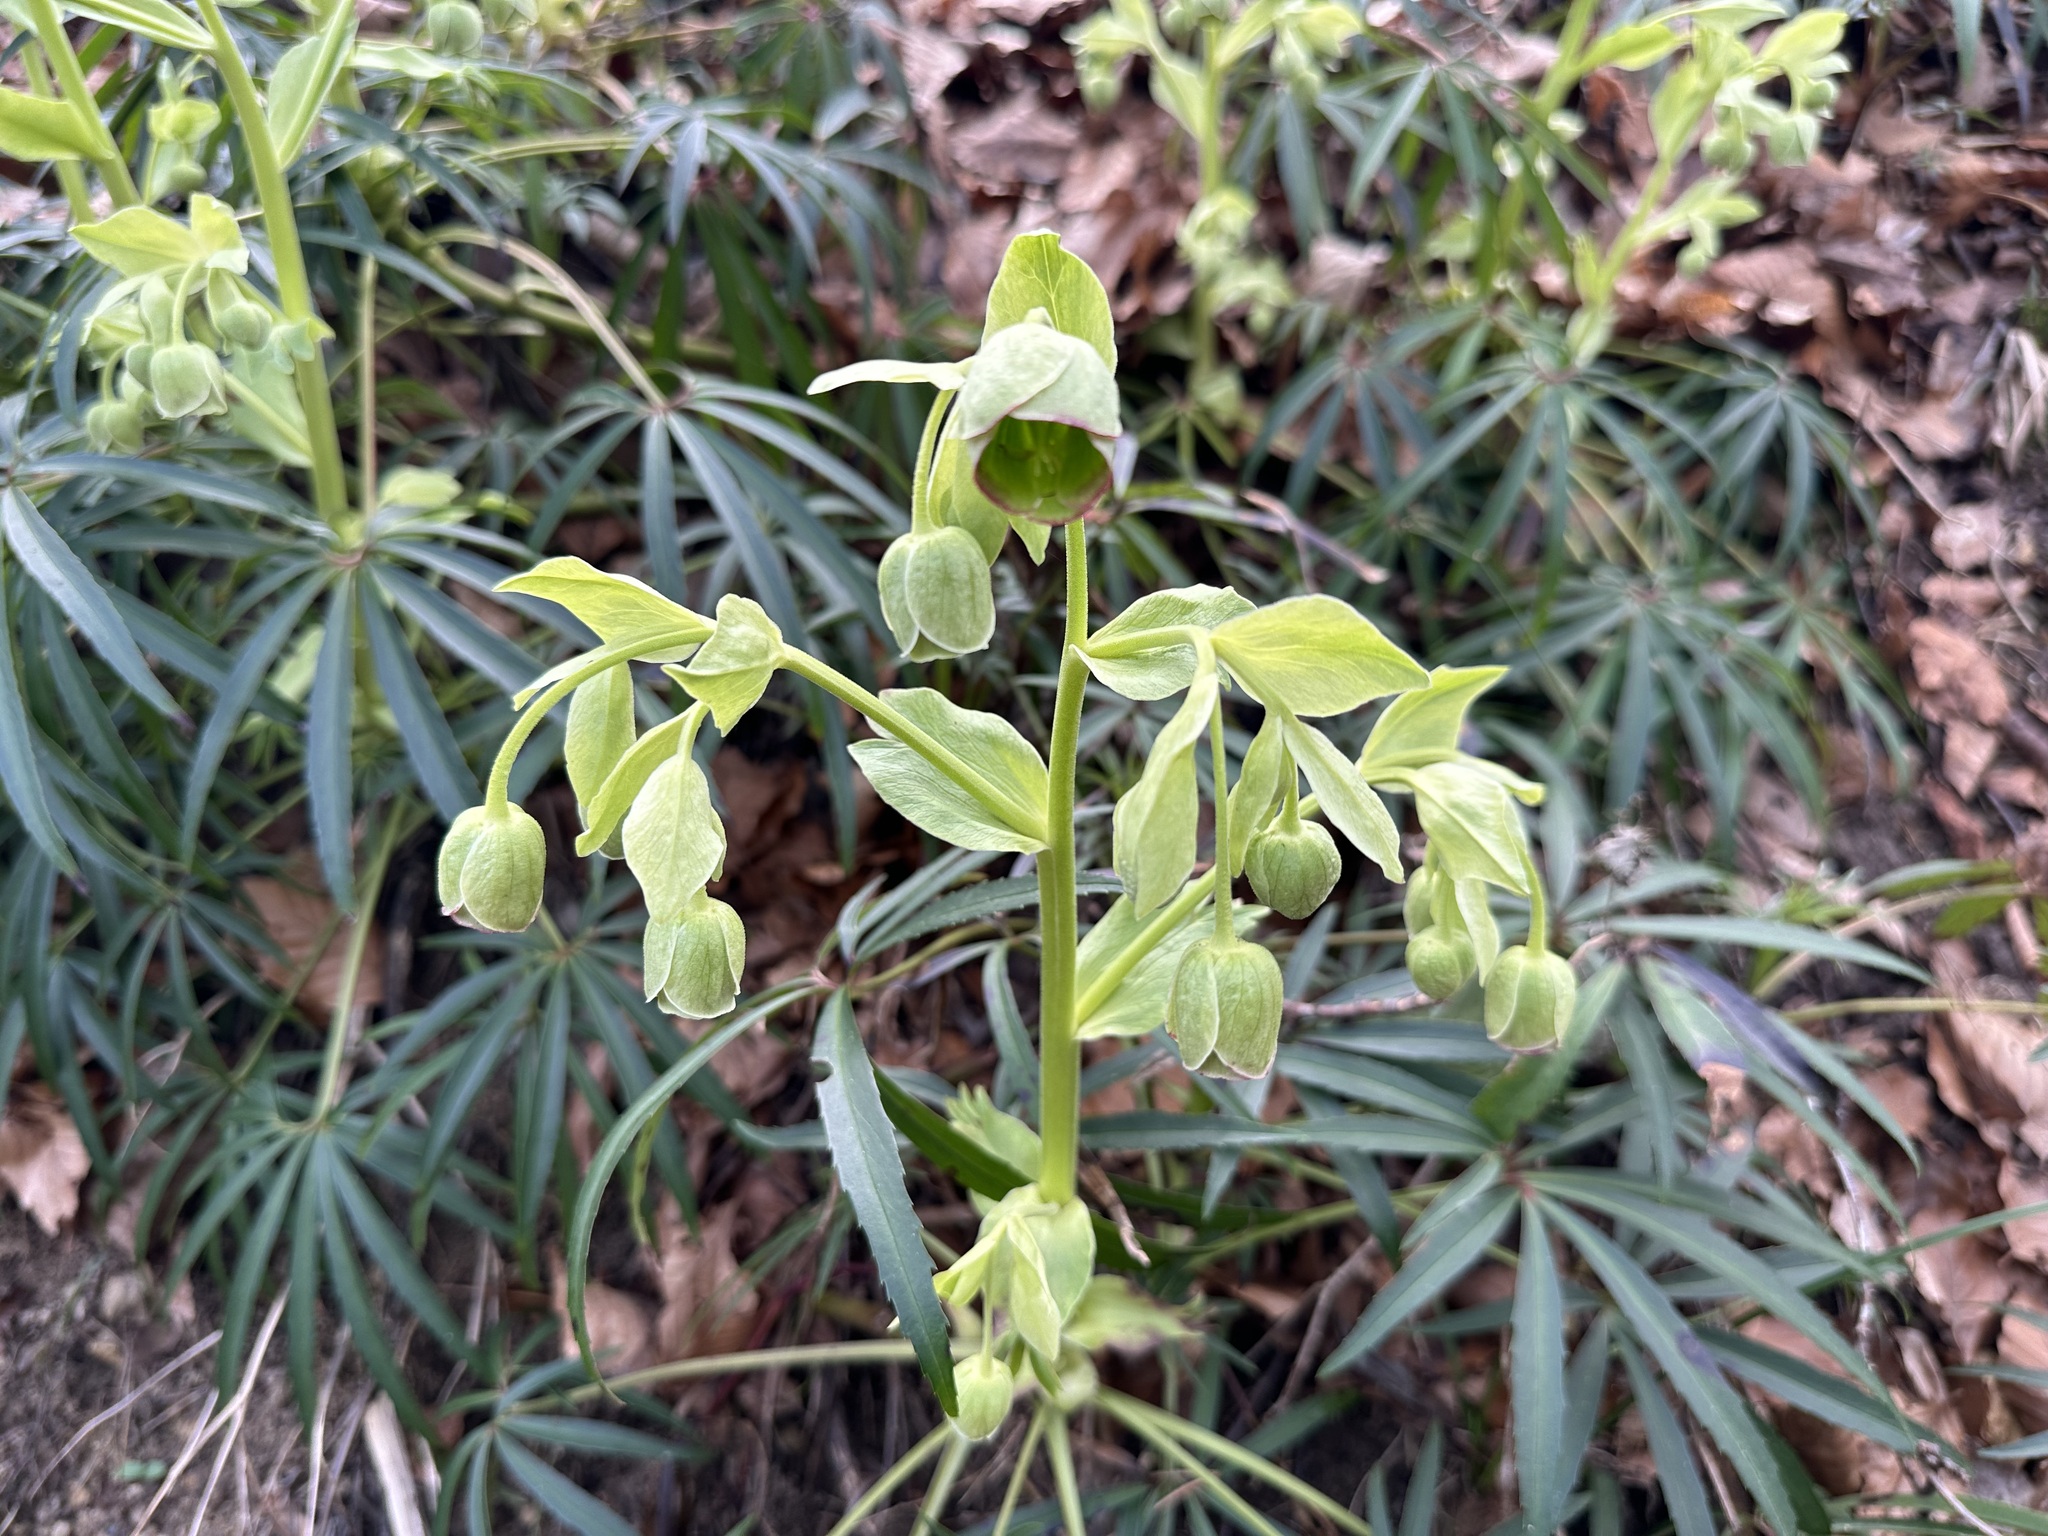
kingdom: Plantae
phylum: Tracheophyta
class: Magnoliopsida
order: Ranunculales
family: Ranunculaceae
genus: Helleborus
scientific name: Helleborus foetidus
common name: Stinking hellebore
